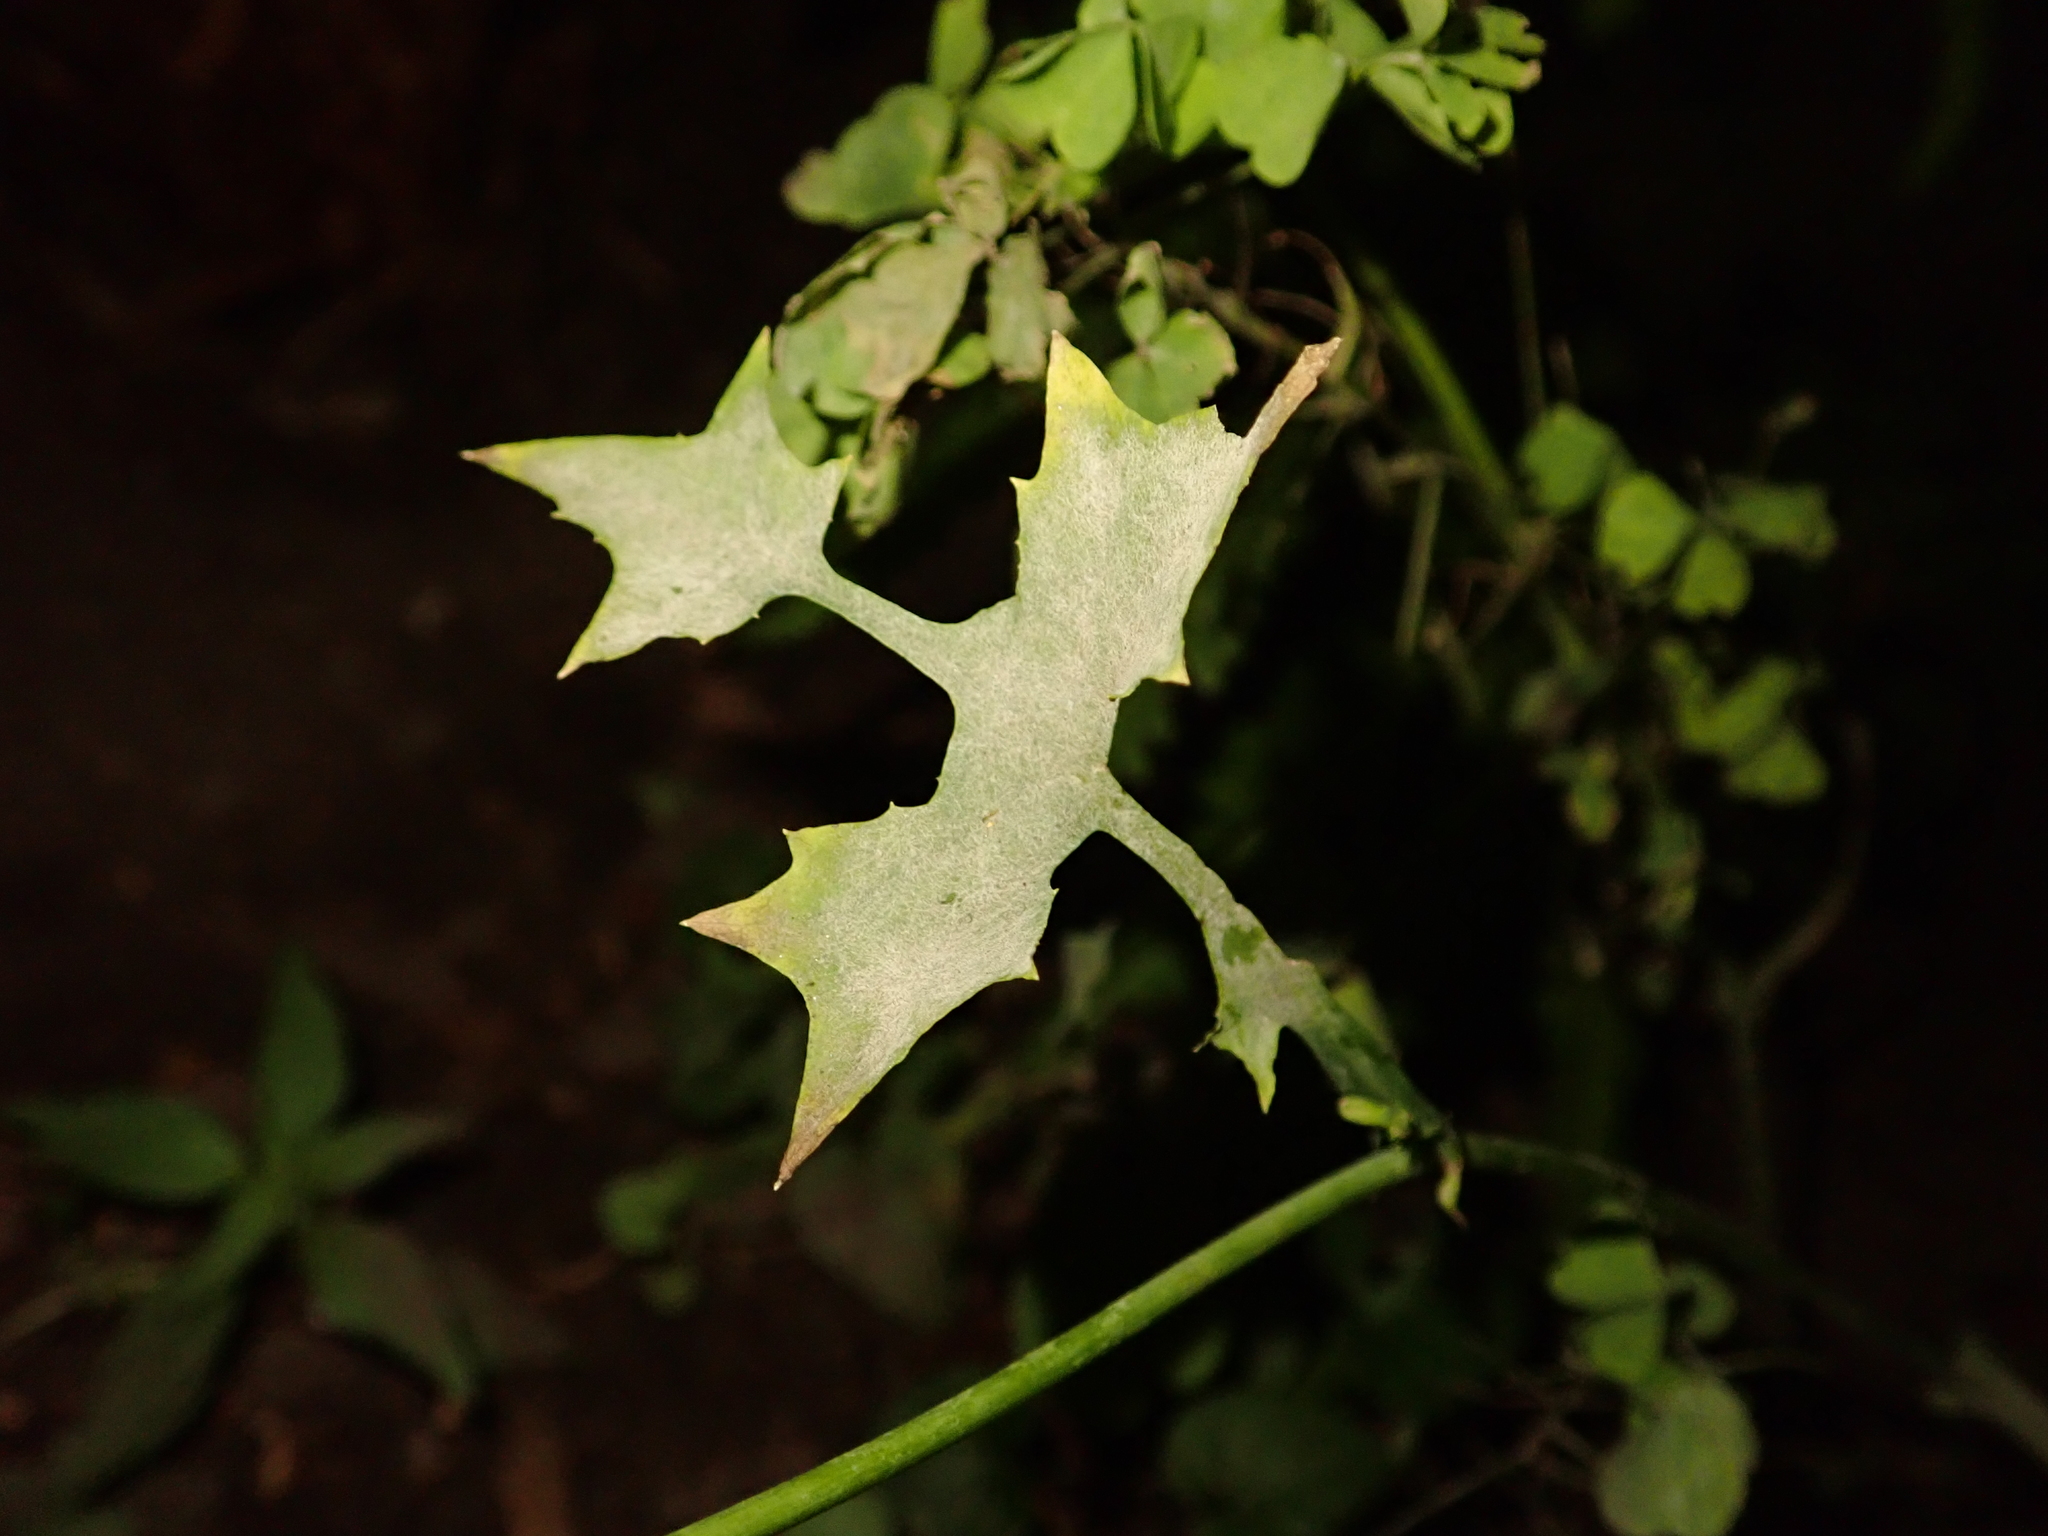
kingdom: Plantae
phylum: Tracheophyta
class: Magnoliopsida
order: Asterales
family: Asteraceae
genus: Mycelis
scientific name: Mycelis muralis
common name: Wall lettuce
